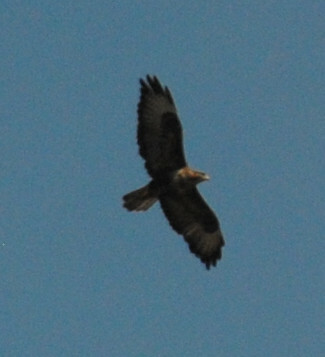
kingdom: Animalia
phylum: Chordata
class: Aves
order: Accipitriformes
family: Accipitridae
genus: Buteo
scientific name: Buteo buteo
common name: Common buzzard
